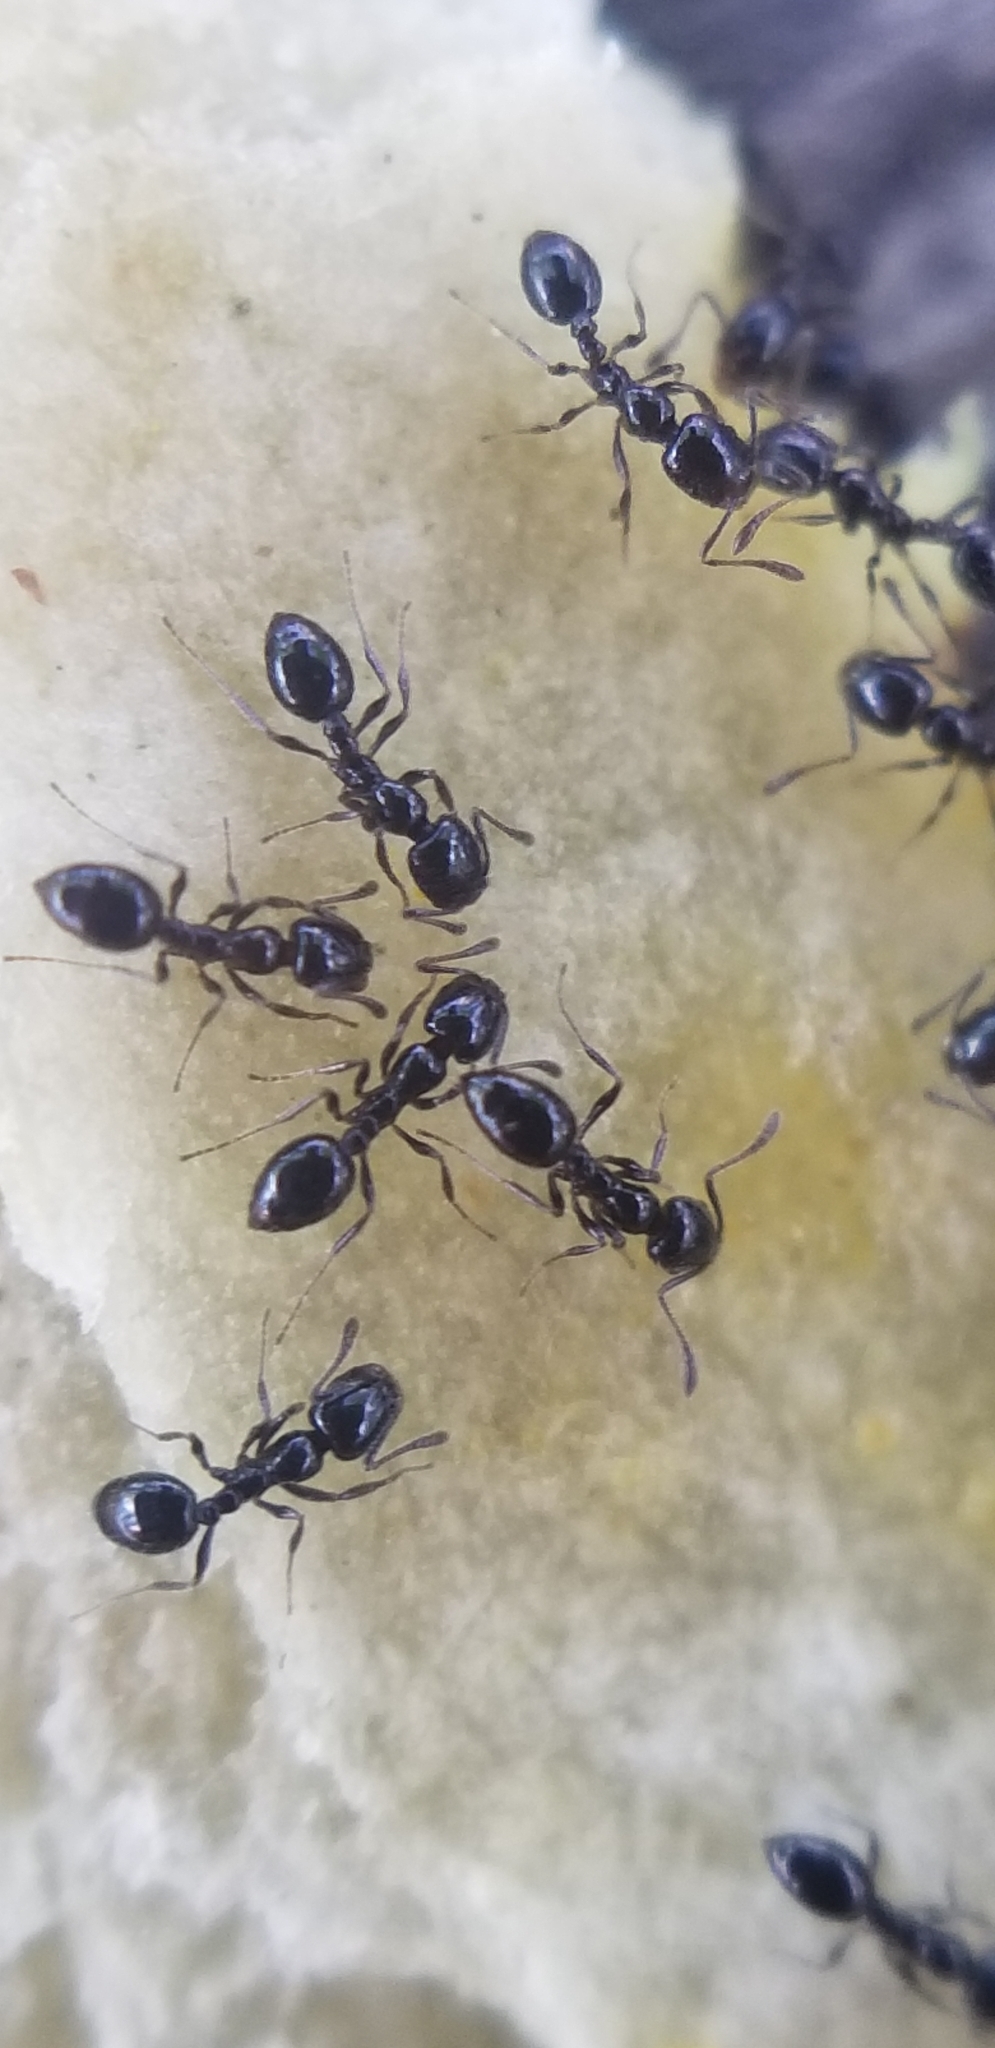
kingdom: Animalia
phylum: Arthropoda
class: Insecta
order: Hymenoptera
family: Formicidae
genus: Monomorium
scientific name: Monomorium minimum
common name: Little black ant
